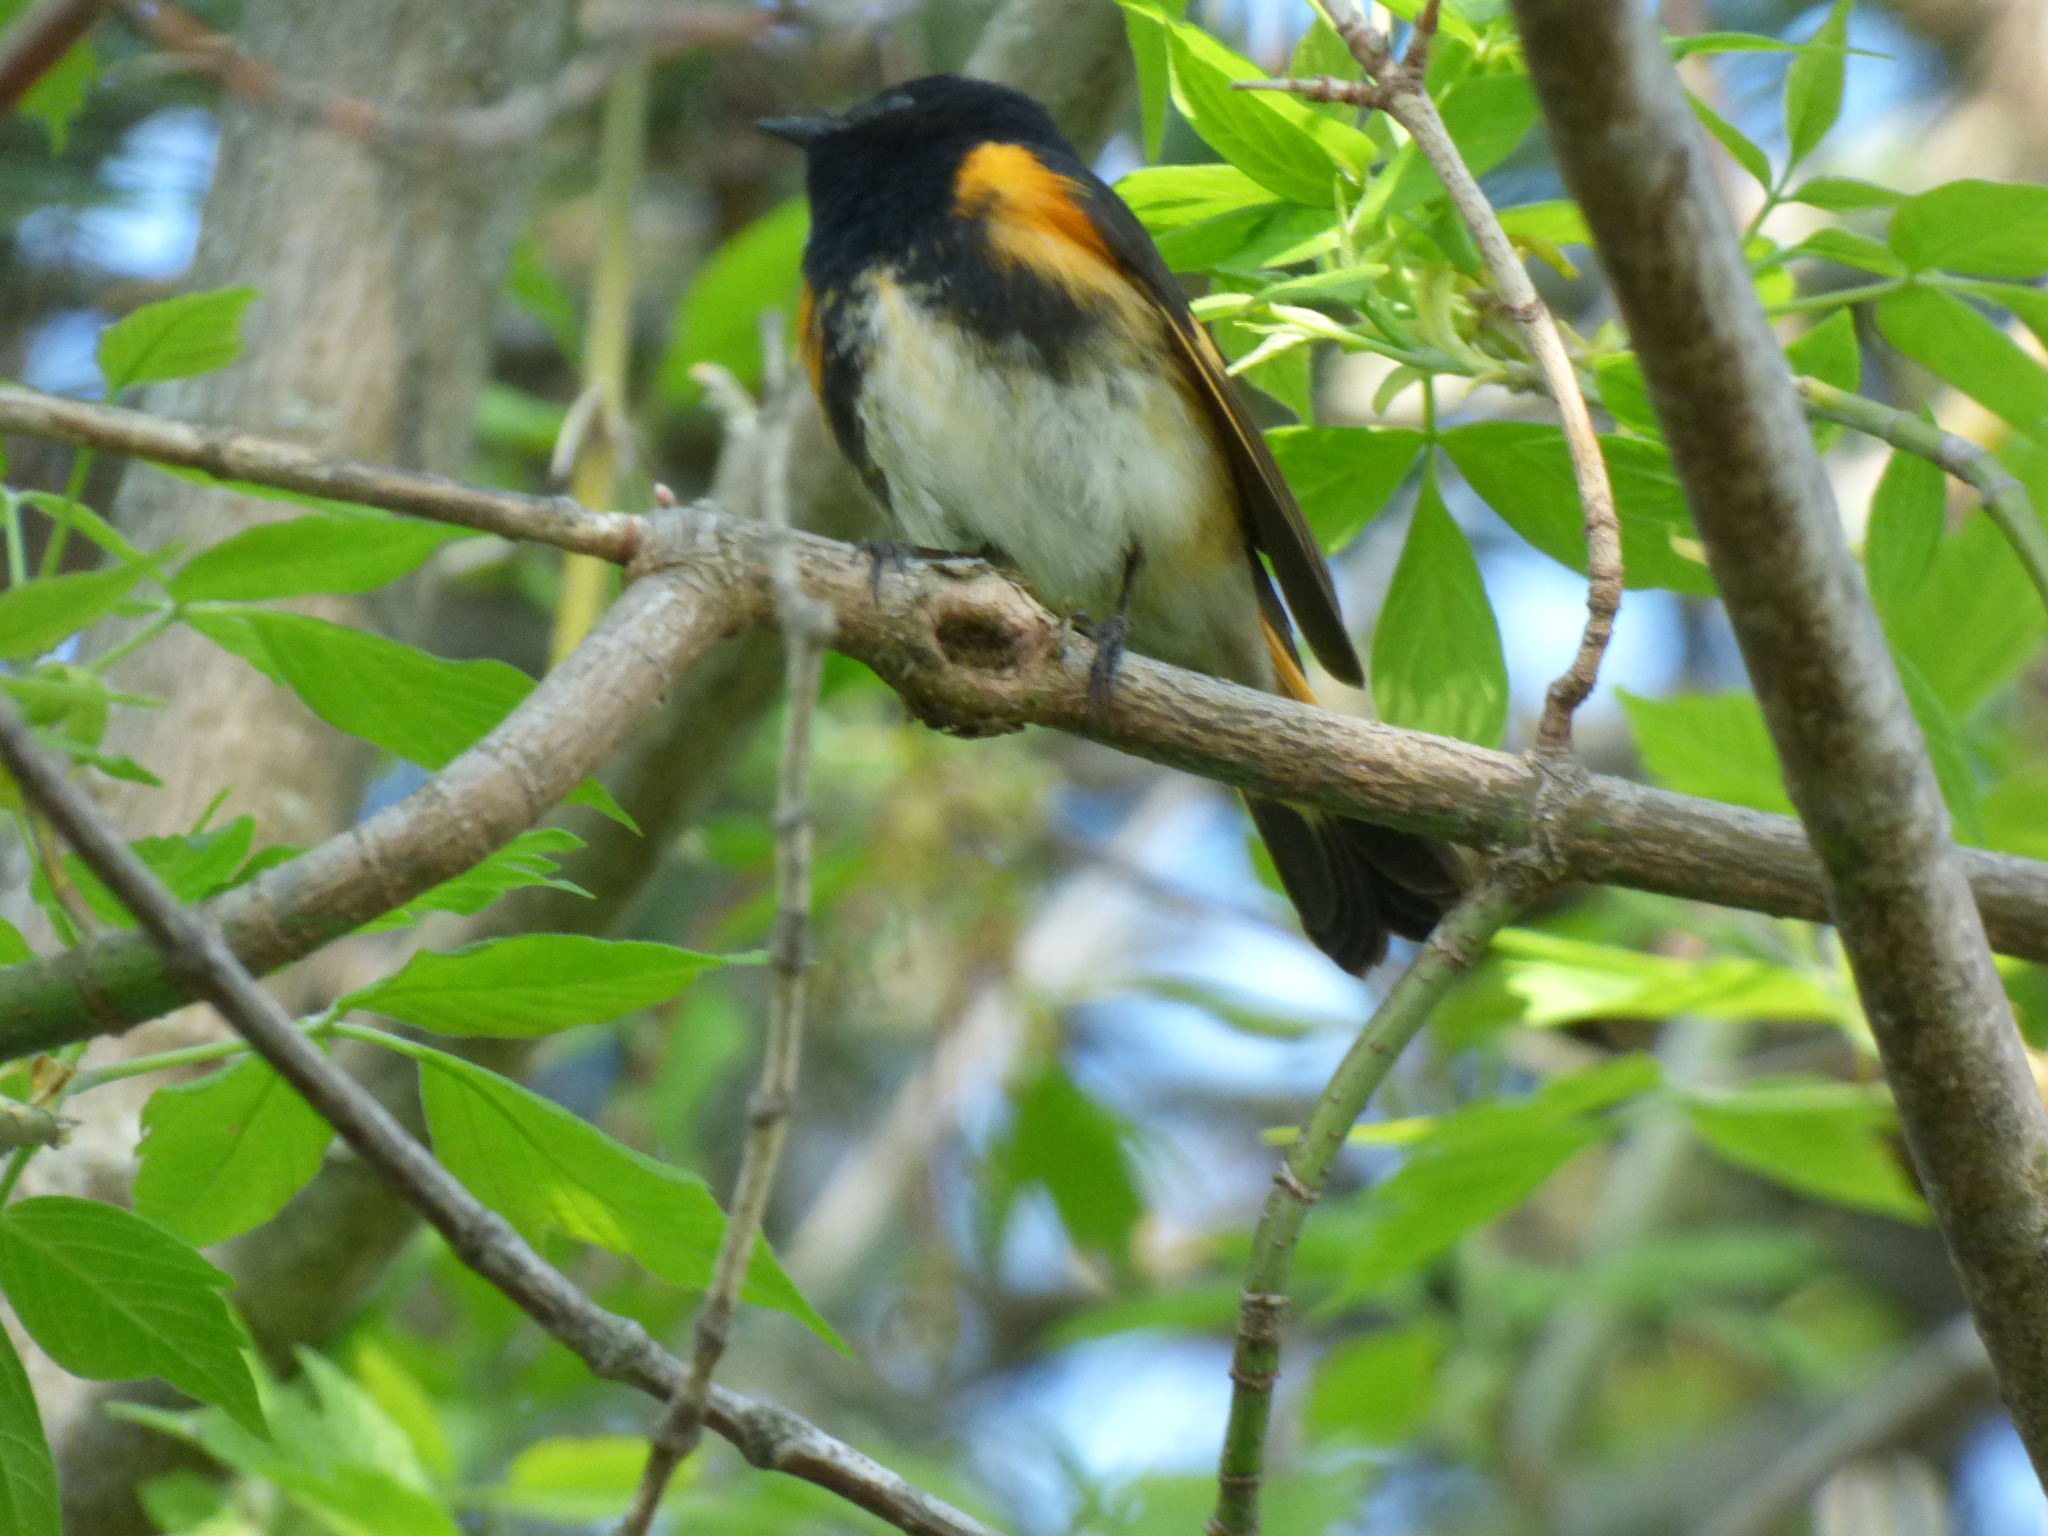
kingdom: Animalia
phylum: Chordata
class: Aves
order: Passeriformes
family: Parulidae
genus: Setophaga
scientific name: Setophaga ruticilla
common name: American redstart
